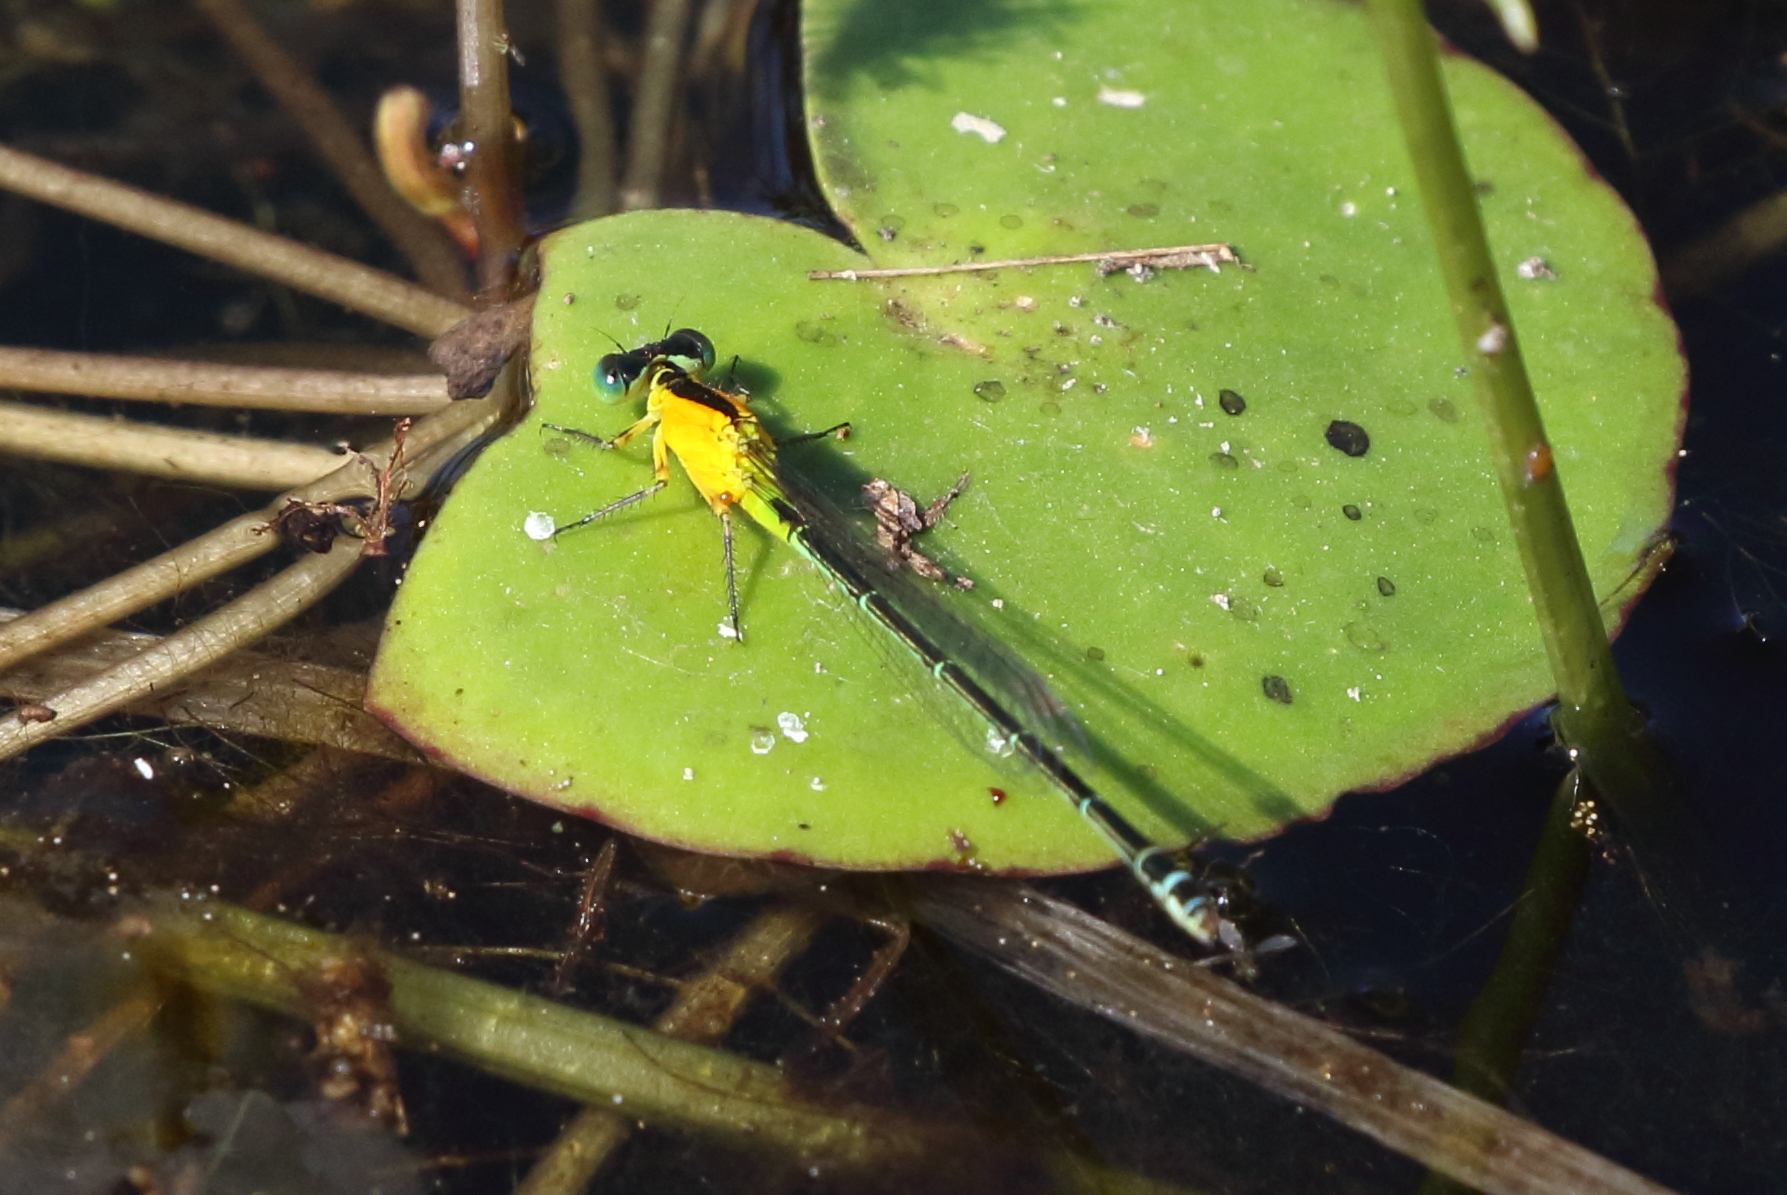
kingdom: Animalia
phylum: Arthropoda
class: Insecta
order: Odonata
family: Coenagrionidae
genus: Ischnura
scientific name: Ischnura pruinescens
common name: Colourful bluetail
